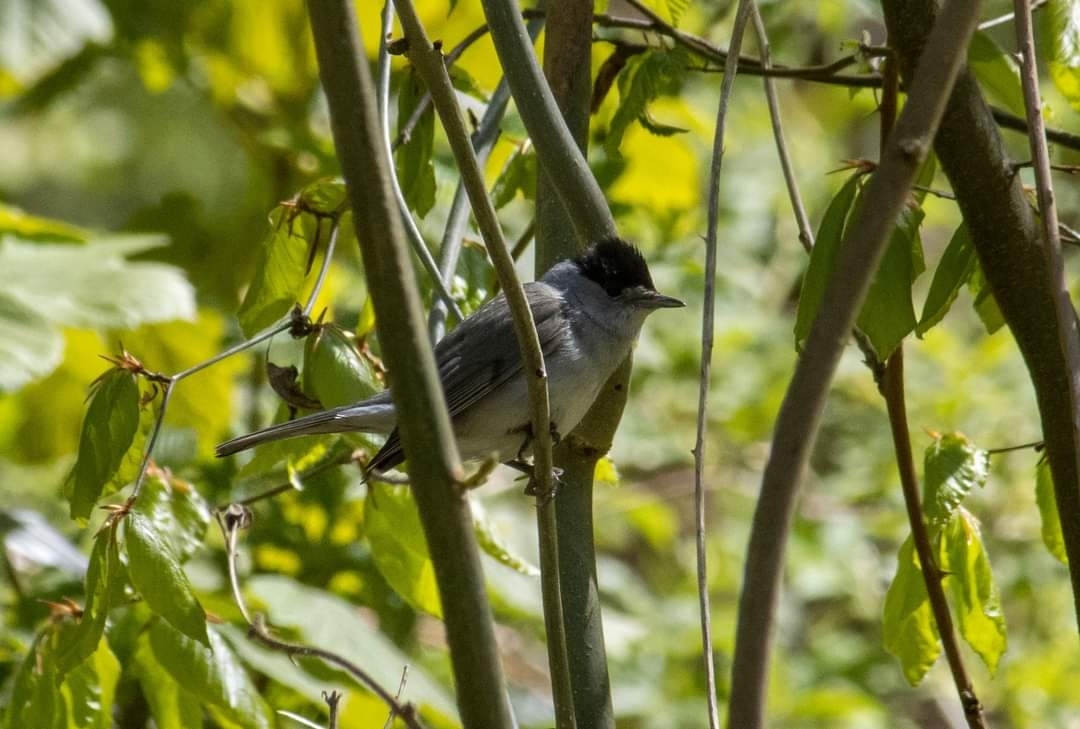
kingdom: Animalia
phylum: Chordata
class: Aves
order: Passeriformes
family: Sylviidae
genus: Sylvia
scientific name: Sylvia atricapilla
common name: Eurasian blackcap
